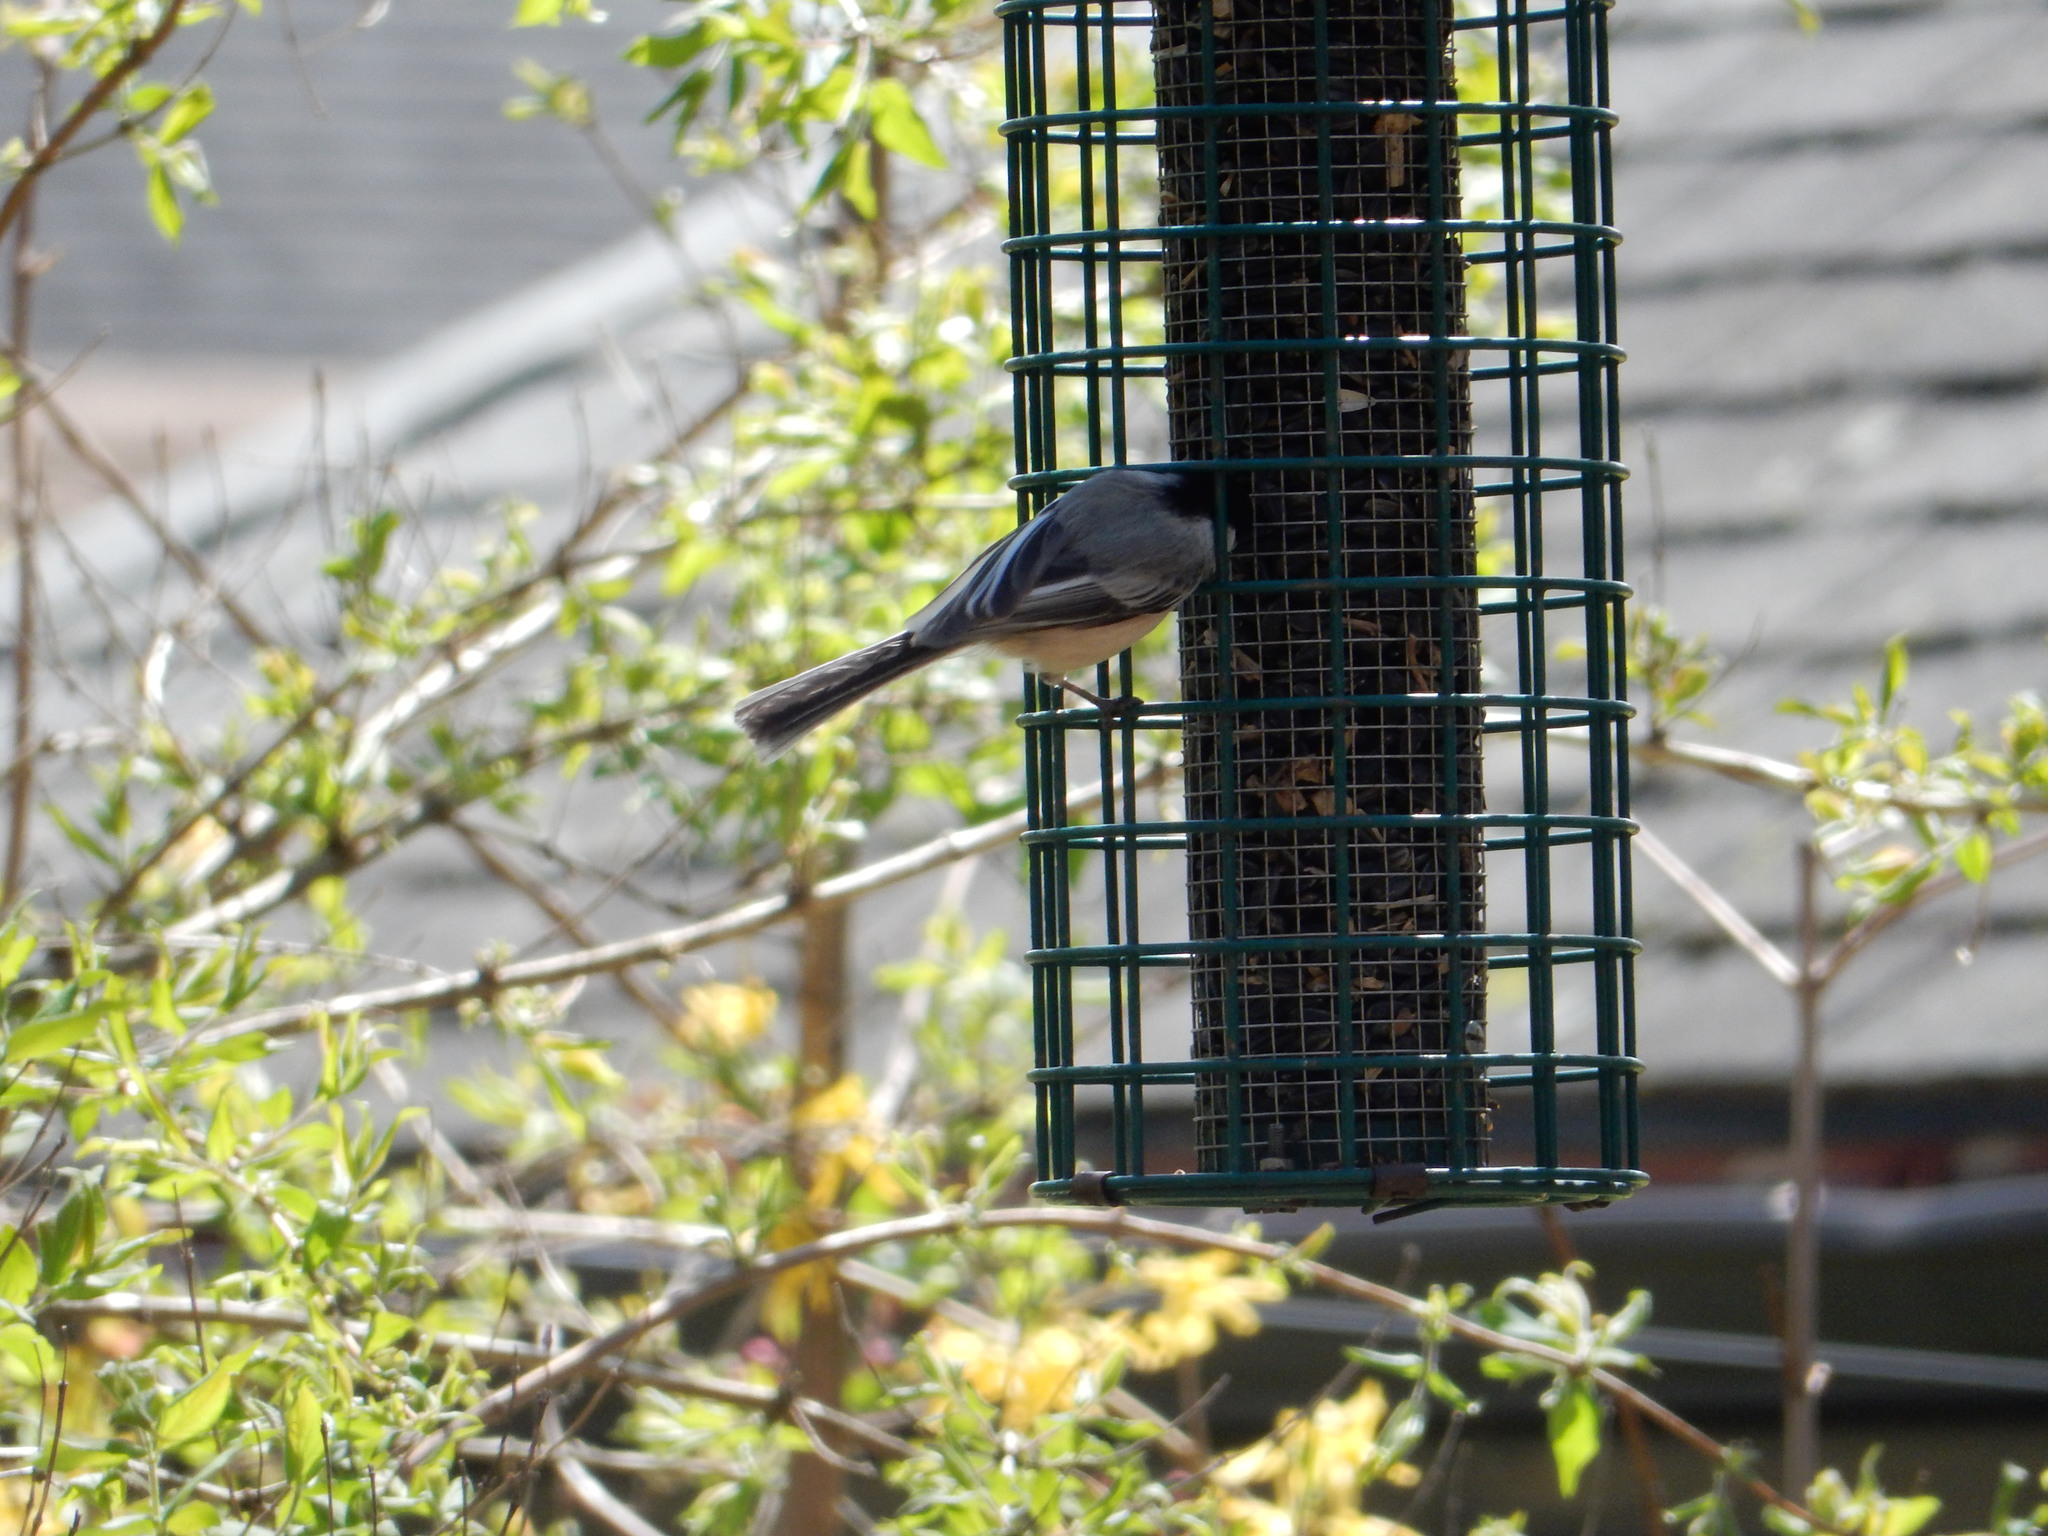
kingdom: Animalia
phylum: Chordata
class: Aves
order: Passeriformes
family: Paridae
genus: Poecile
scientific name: Poecile atricapillus
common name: Black-capped chickadee
